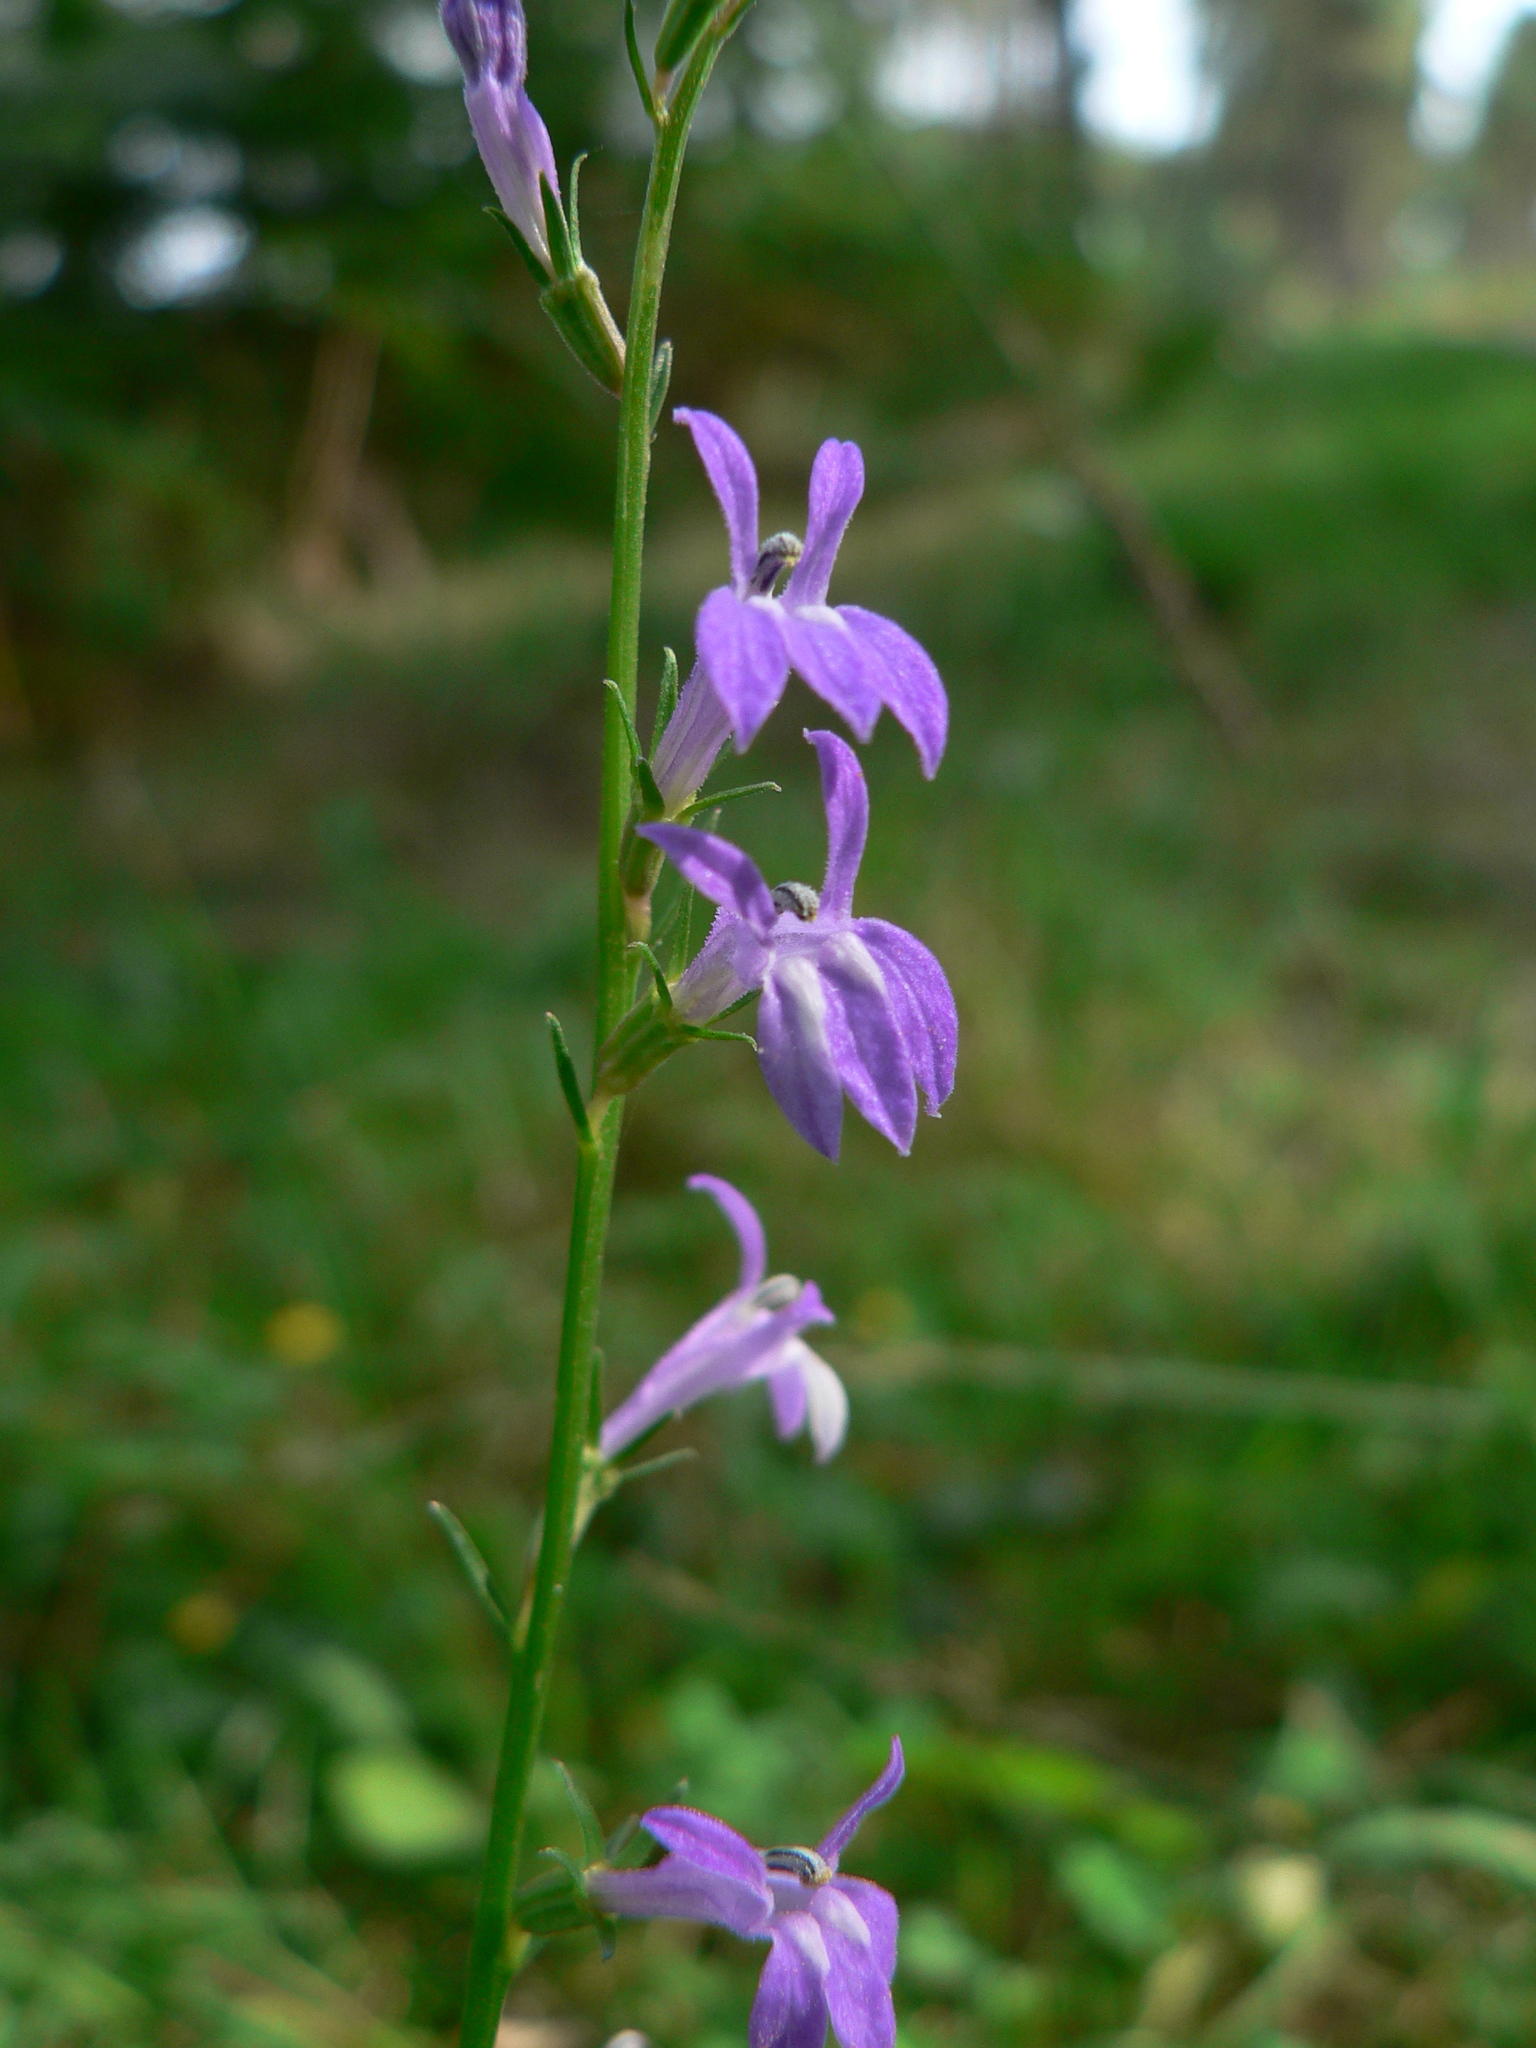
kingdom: Plantae
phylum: Tracheophyta
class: Magnoliopsida
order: Asterales
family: Campanulaceae
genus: Lobelia
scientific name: Lobelia urens
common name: Heath lobelia
